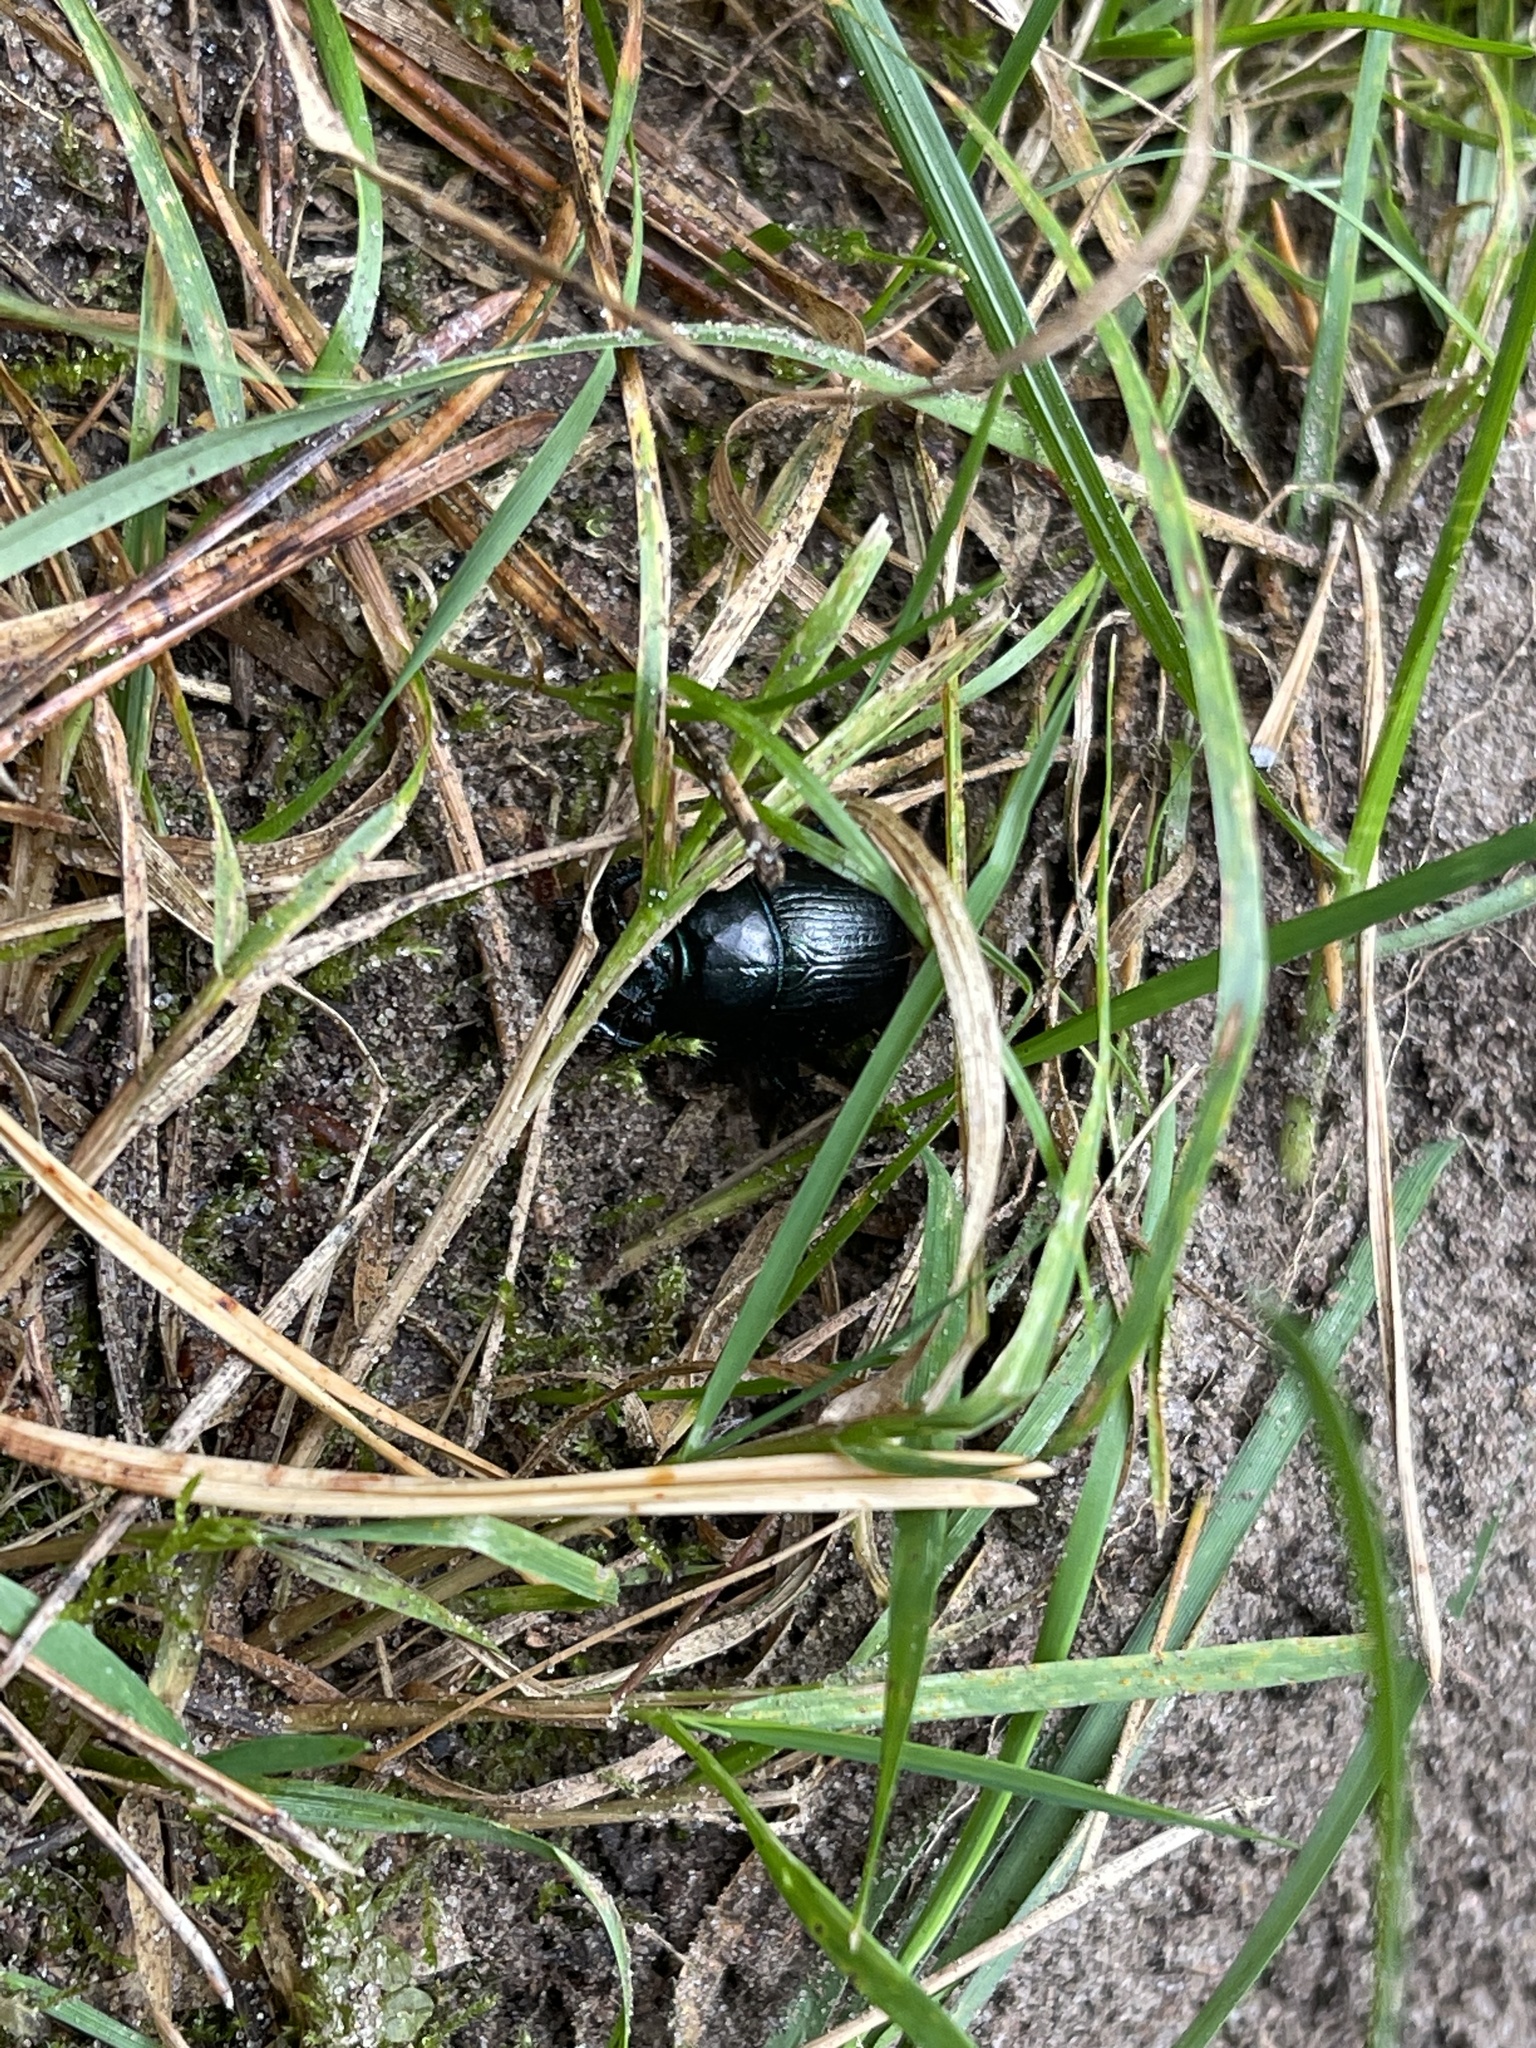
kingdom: Animalia
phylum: Arthropoda
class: Insecta
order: Coleoptera
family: Geotrupidae
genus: Anoplotrupes
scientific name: Anoplotrupes stercorosus
